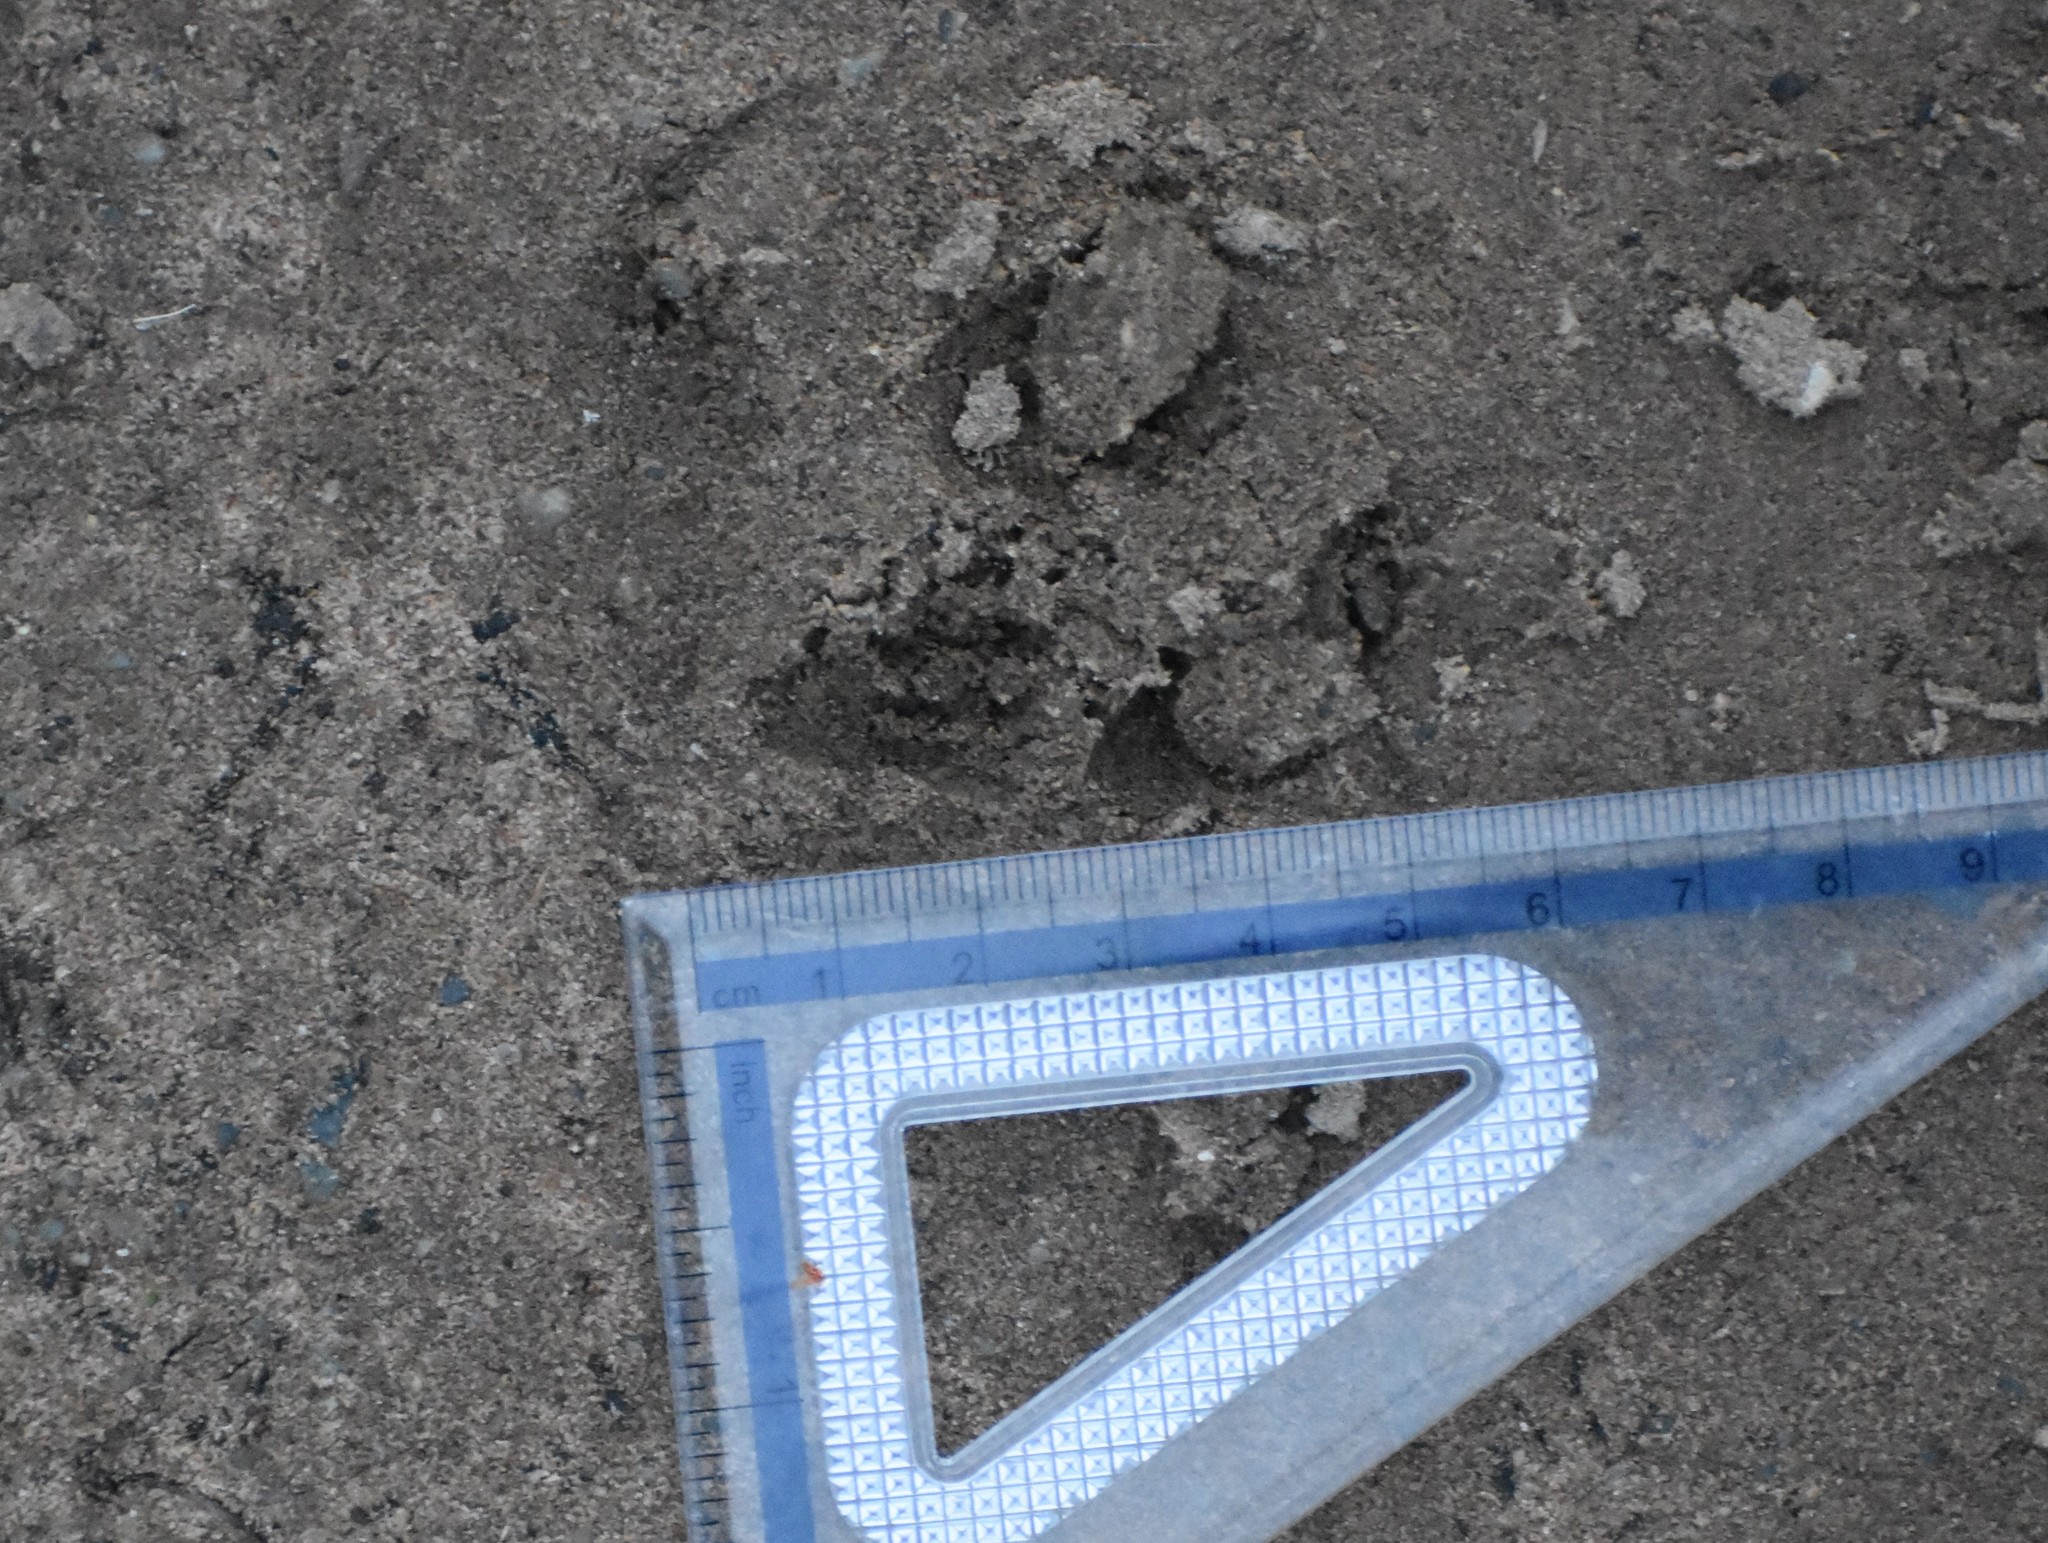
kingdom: Animalia
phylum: Chordata
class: Mammalia
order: Artiodactyla
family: Bovidae
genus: Philantomba
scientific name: Philantomba monticola
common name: Blue duiker
